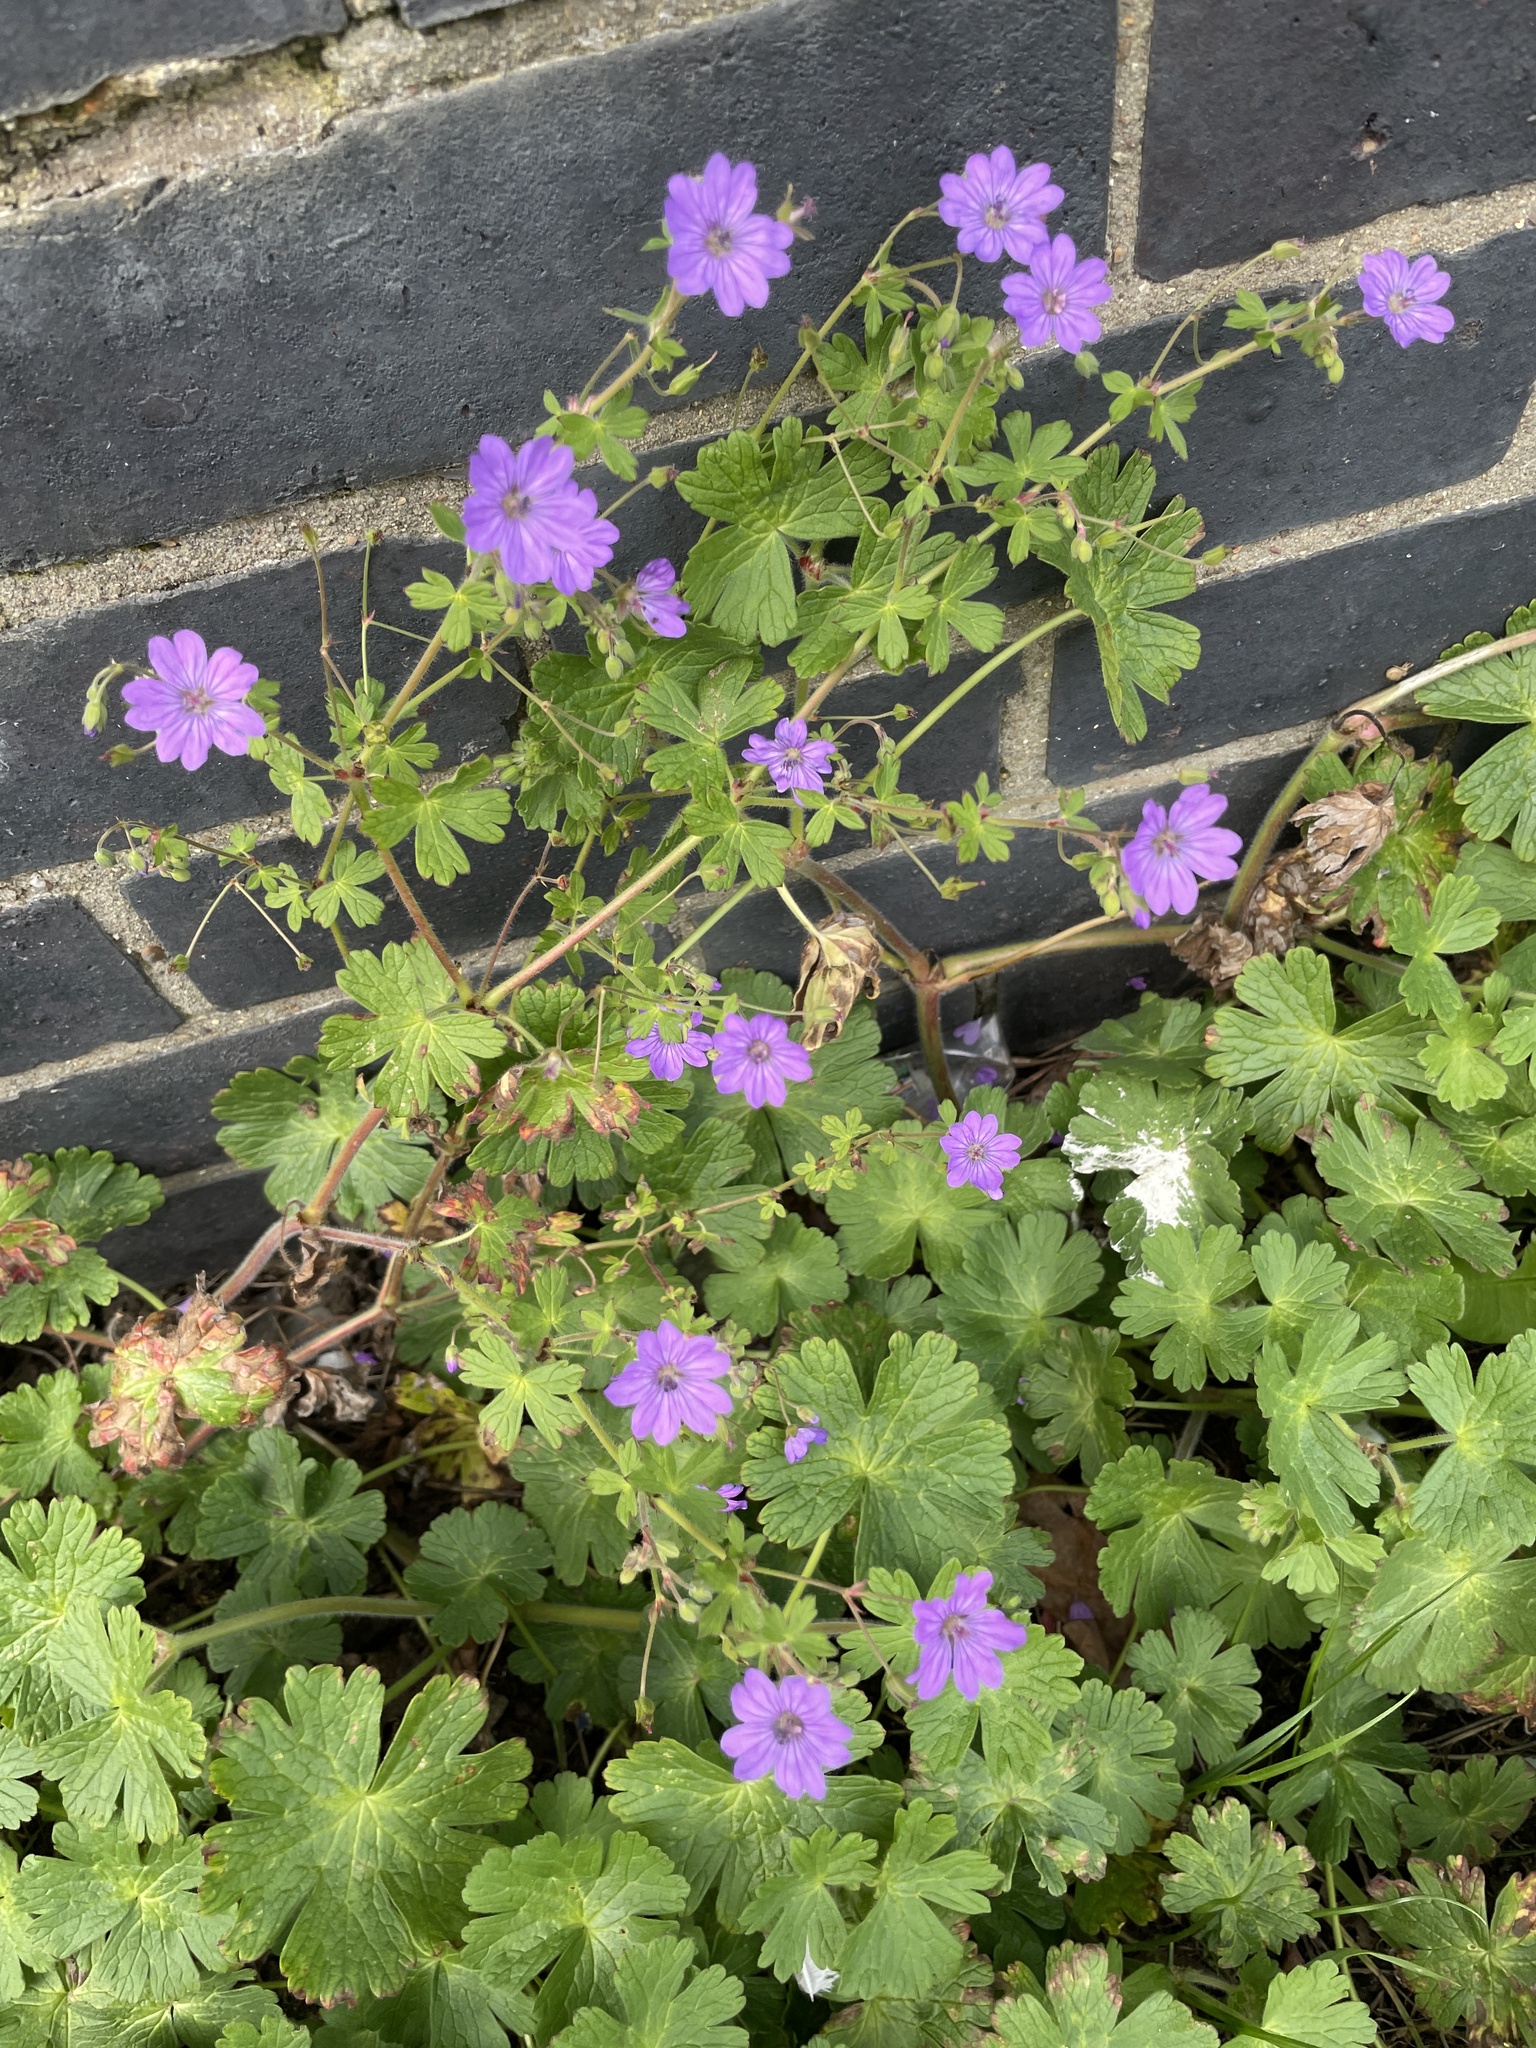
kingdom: Plantae
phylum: Tracheophyta
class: Magnoliopsida
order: Geraniales
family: Geraniaceae
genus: Geranium
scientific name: Geranium pyrenaicum
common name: Hedgerow crane's-bill
